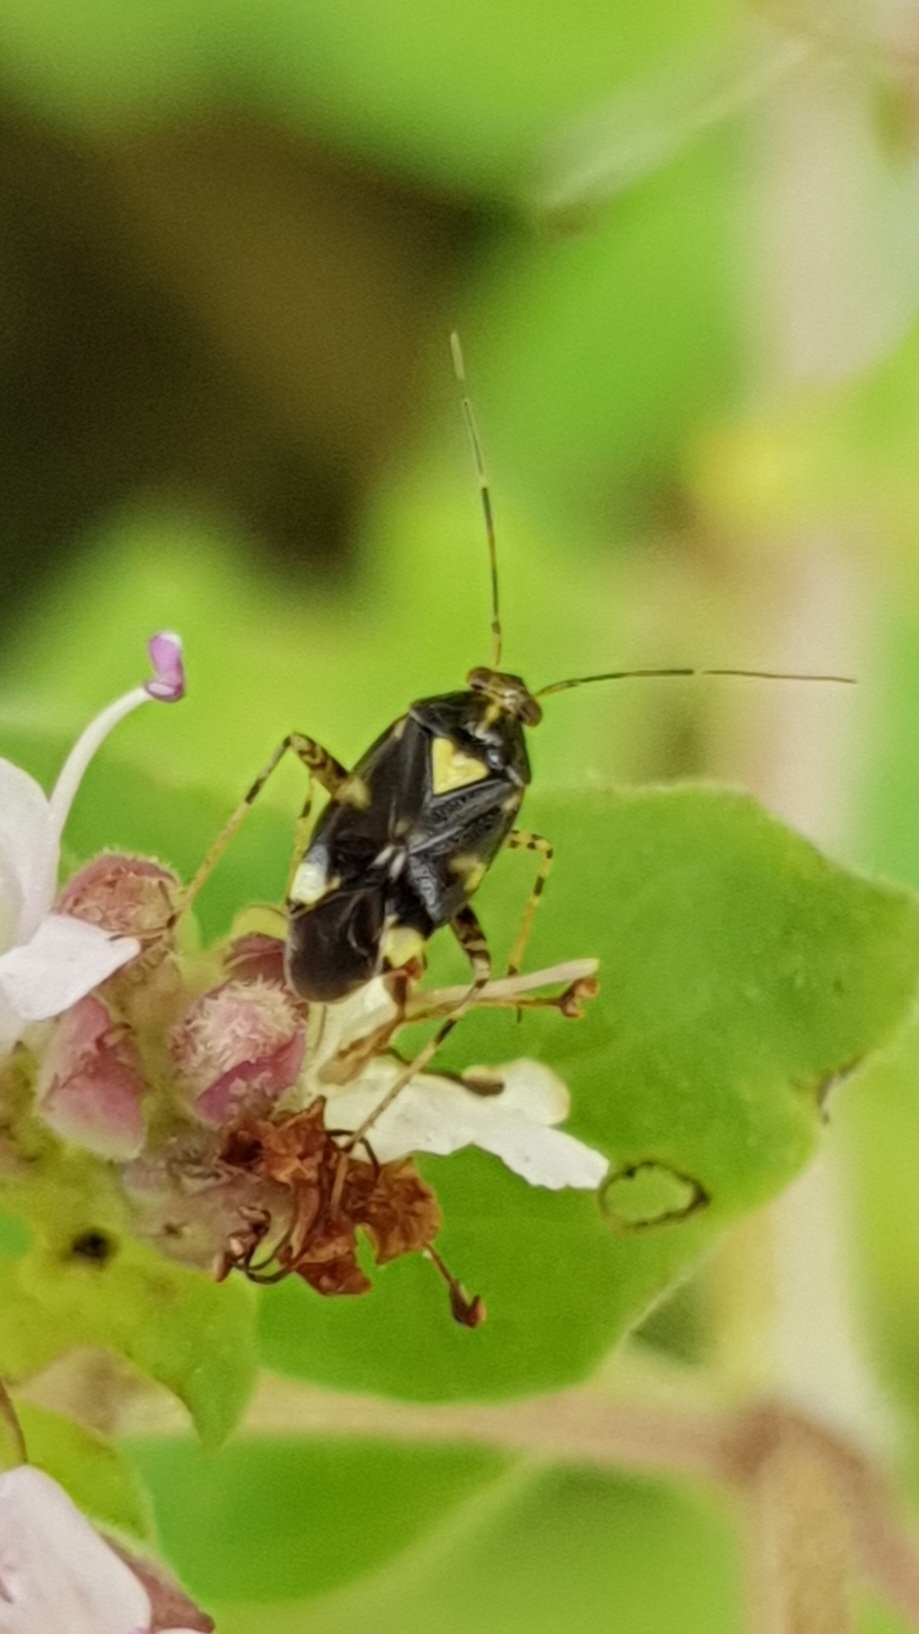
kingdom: Animalia
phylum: Arthropoda
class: Insecta
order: Hemiptera
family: Miridae
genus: Liocoris
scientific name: Liocoris tripustulatus
